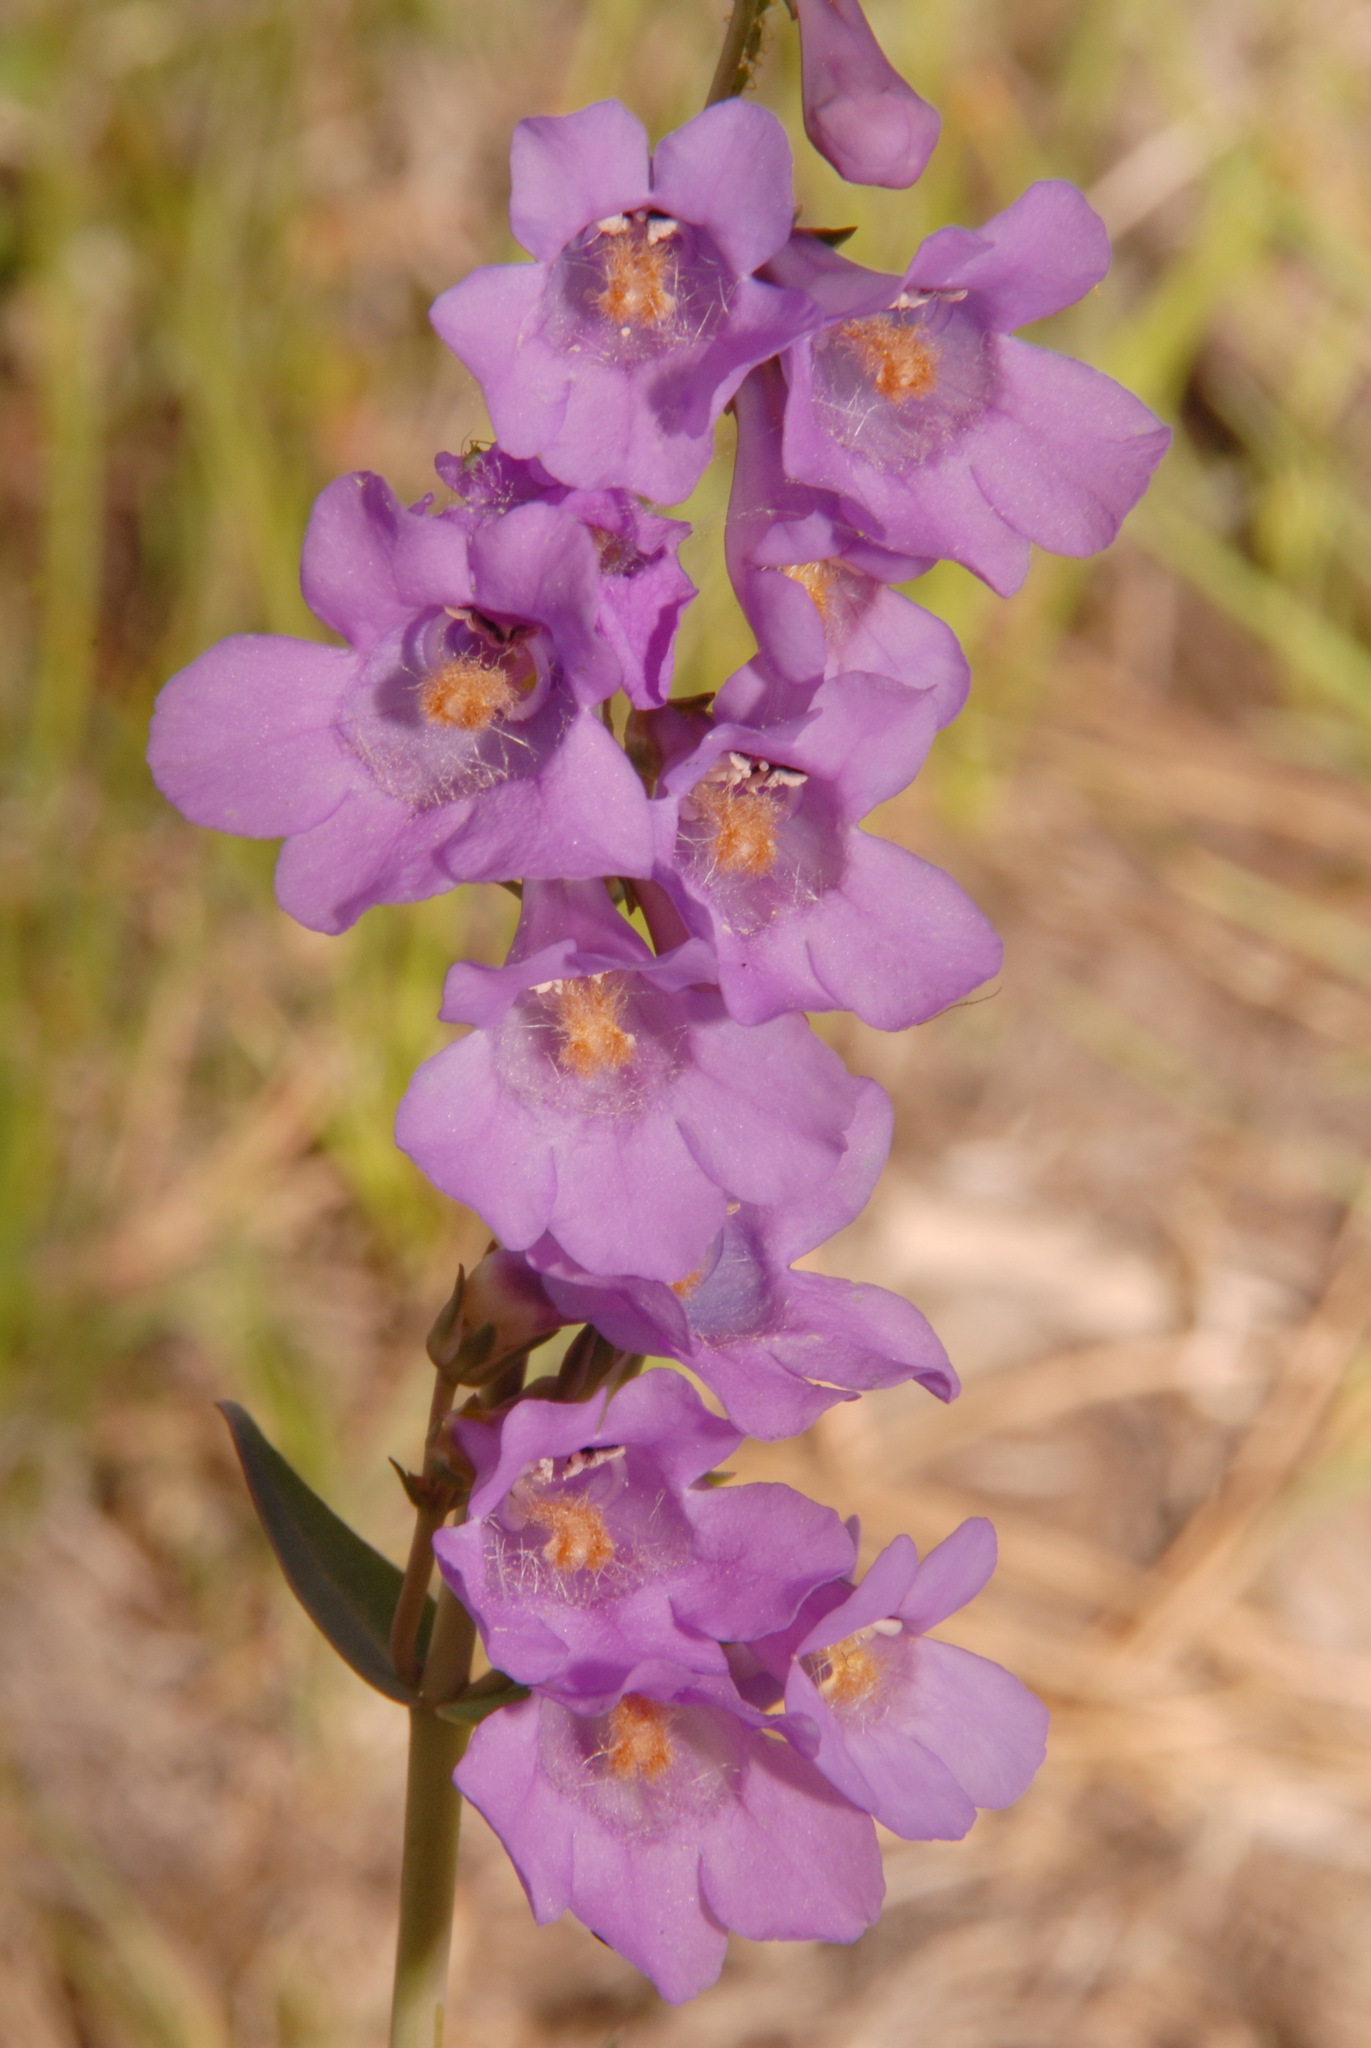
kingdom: Plantae
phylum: Tracheophyta
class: Magnoliopsida
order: Lamiales
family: Plantaginaceae
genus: Penstemon
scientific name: Penstemon secundiflorus
